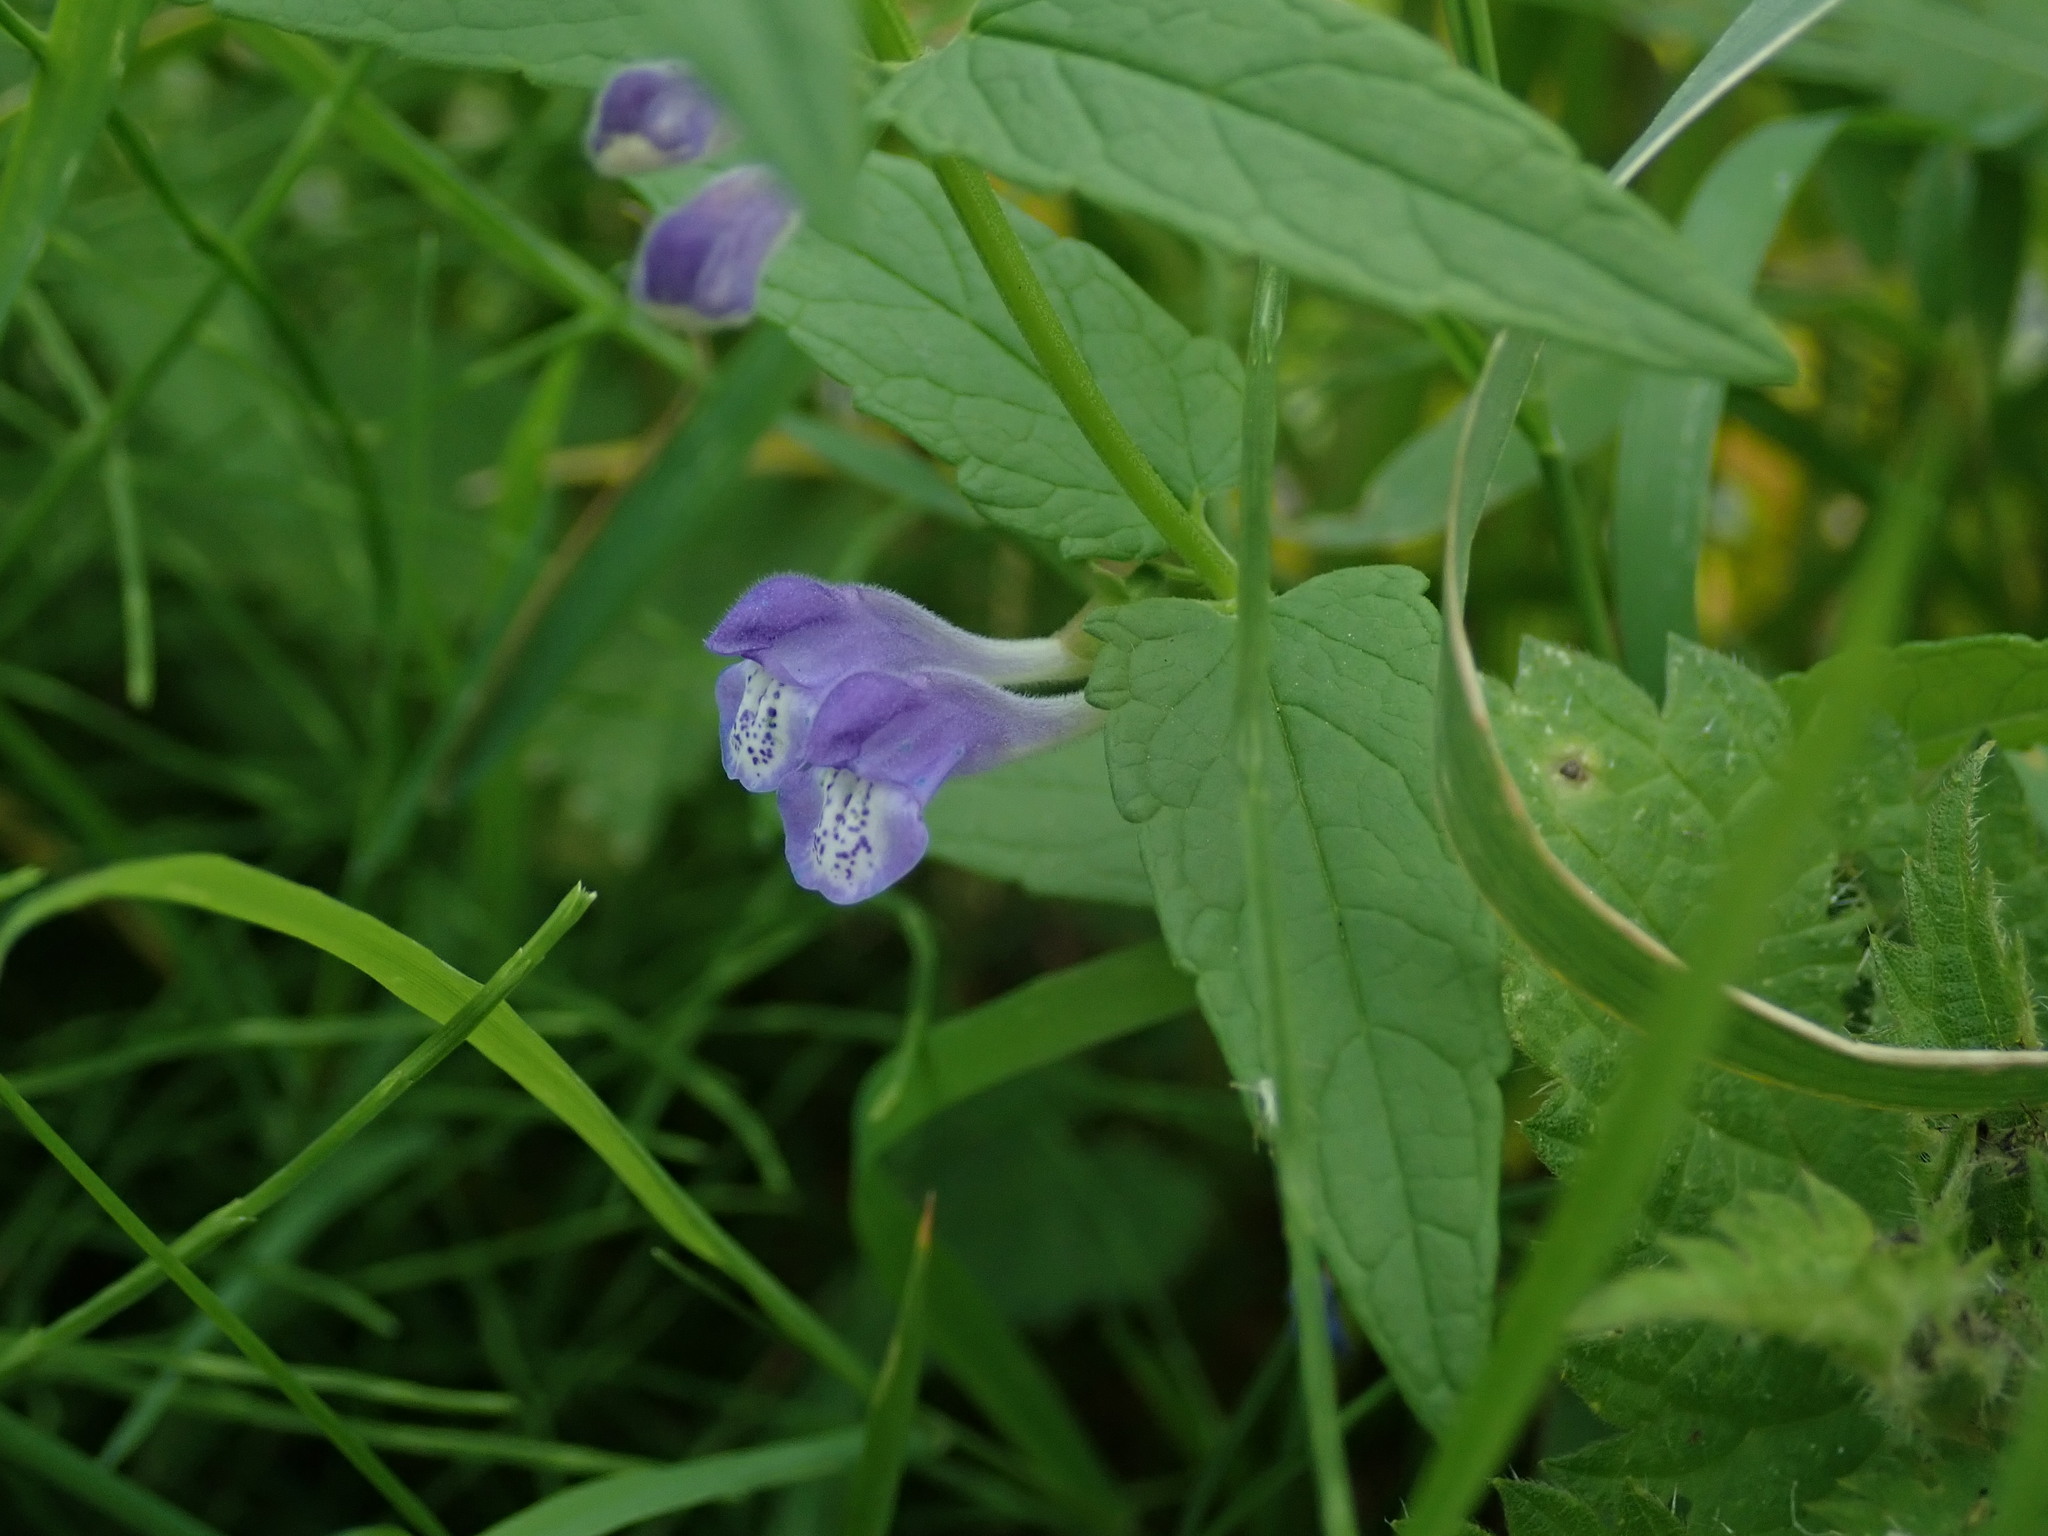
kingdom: Plantae
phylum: Tracheophyta
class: Magnoliopsida
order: Lamiales
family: Lamiaceae
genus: Scutellaria
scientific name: Scutellaria galericulata
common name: Skullcap
